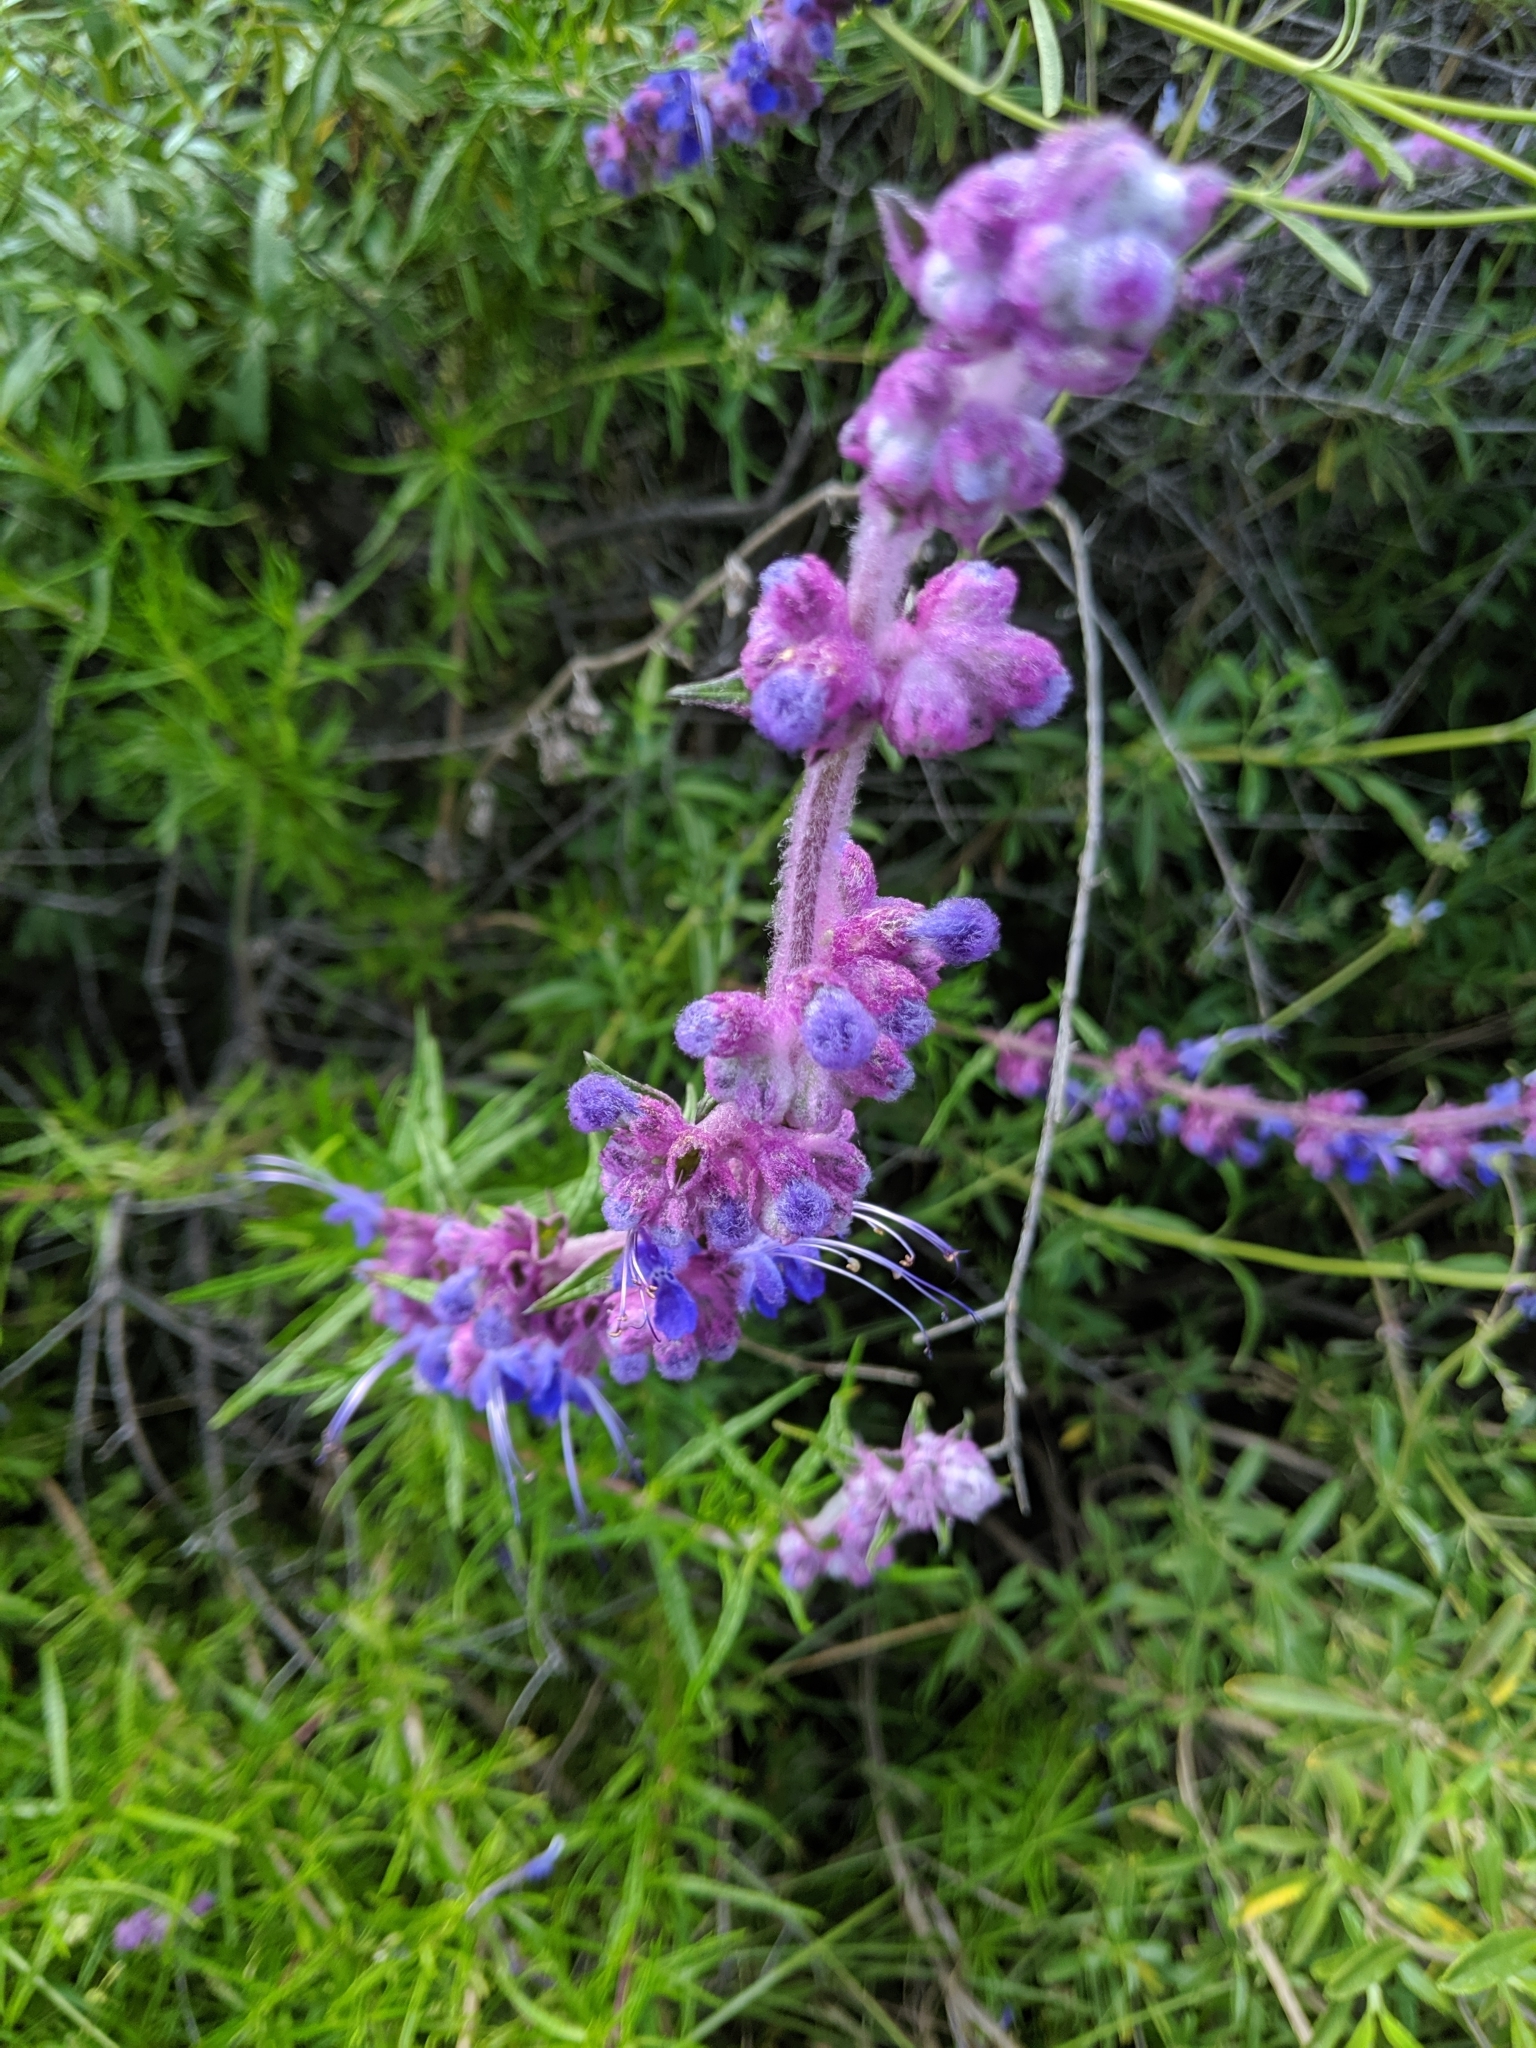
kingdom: Plantae
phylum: Tracheophyta
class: Magnoliopsida
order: Lamiales
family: Lamiaceae
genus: Trichostema
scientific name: Trichostema lanatum
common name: Woolly bluecurls
